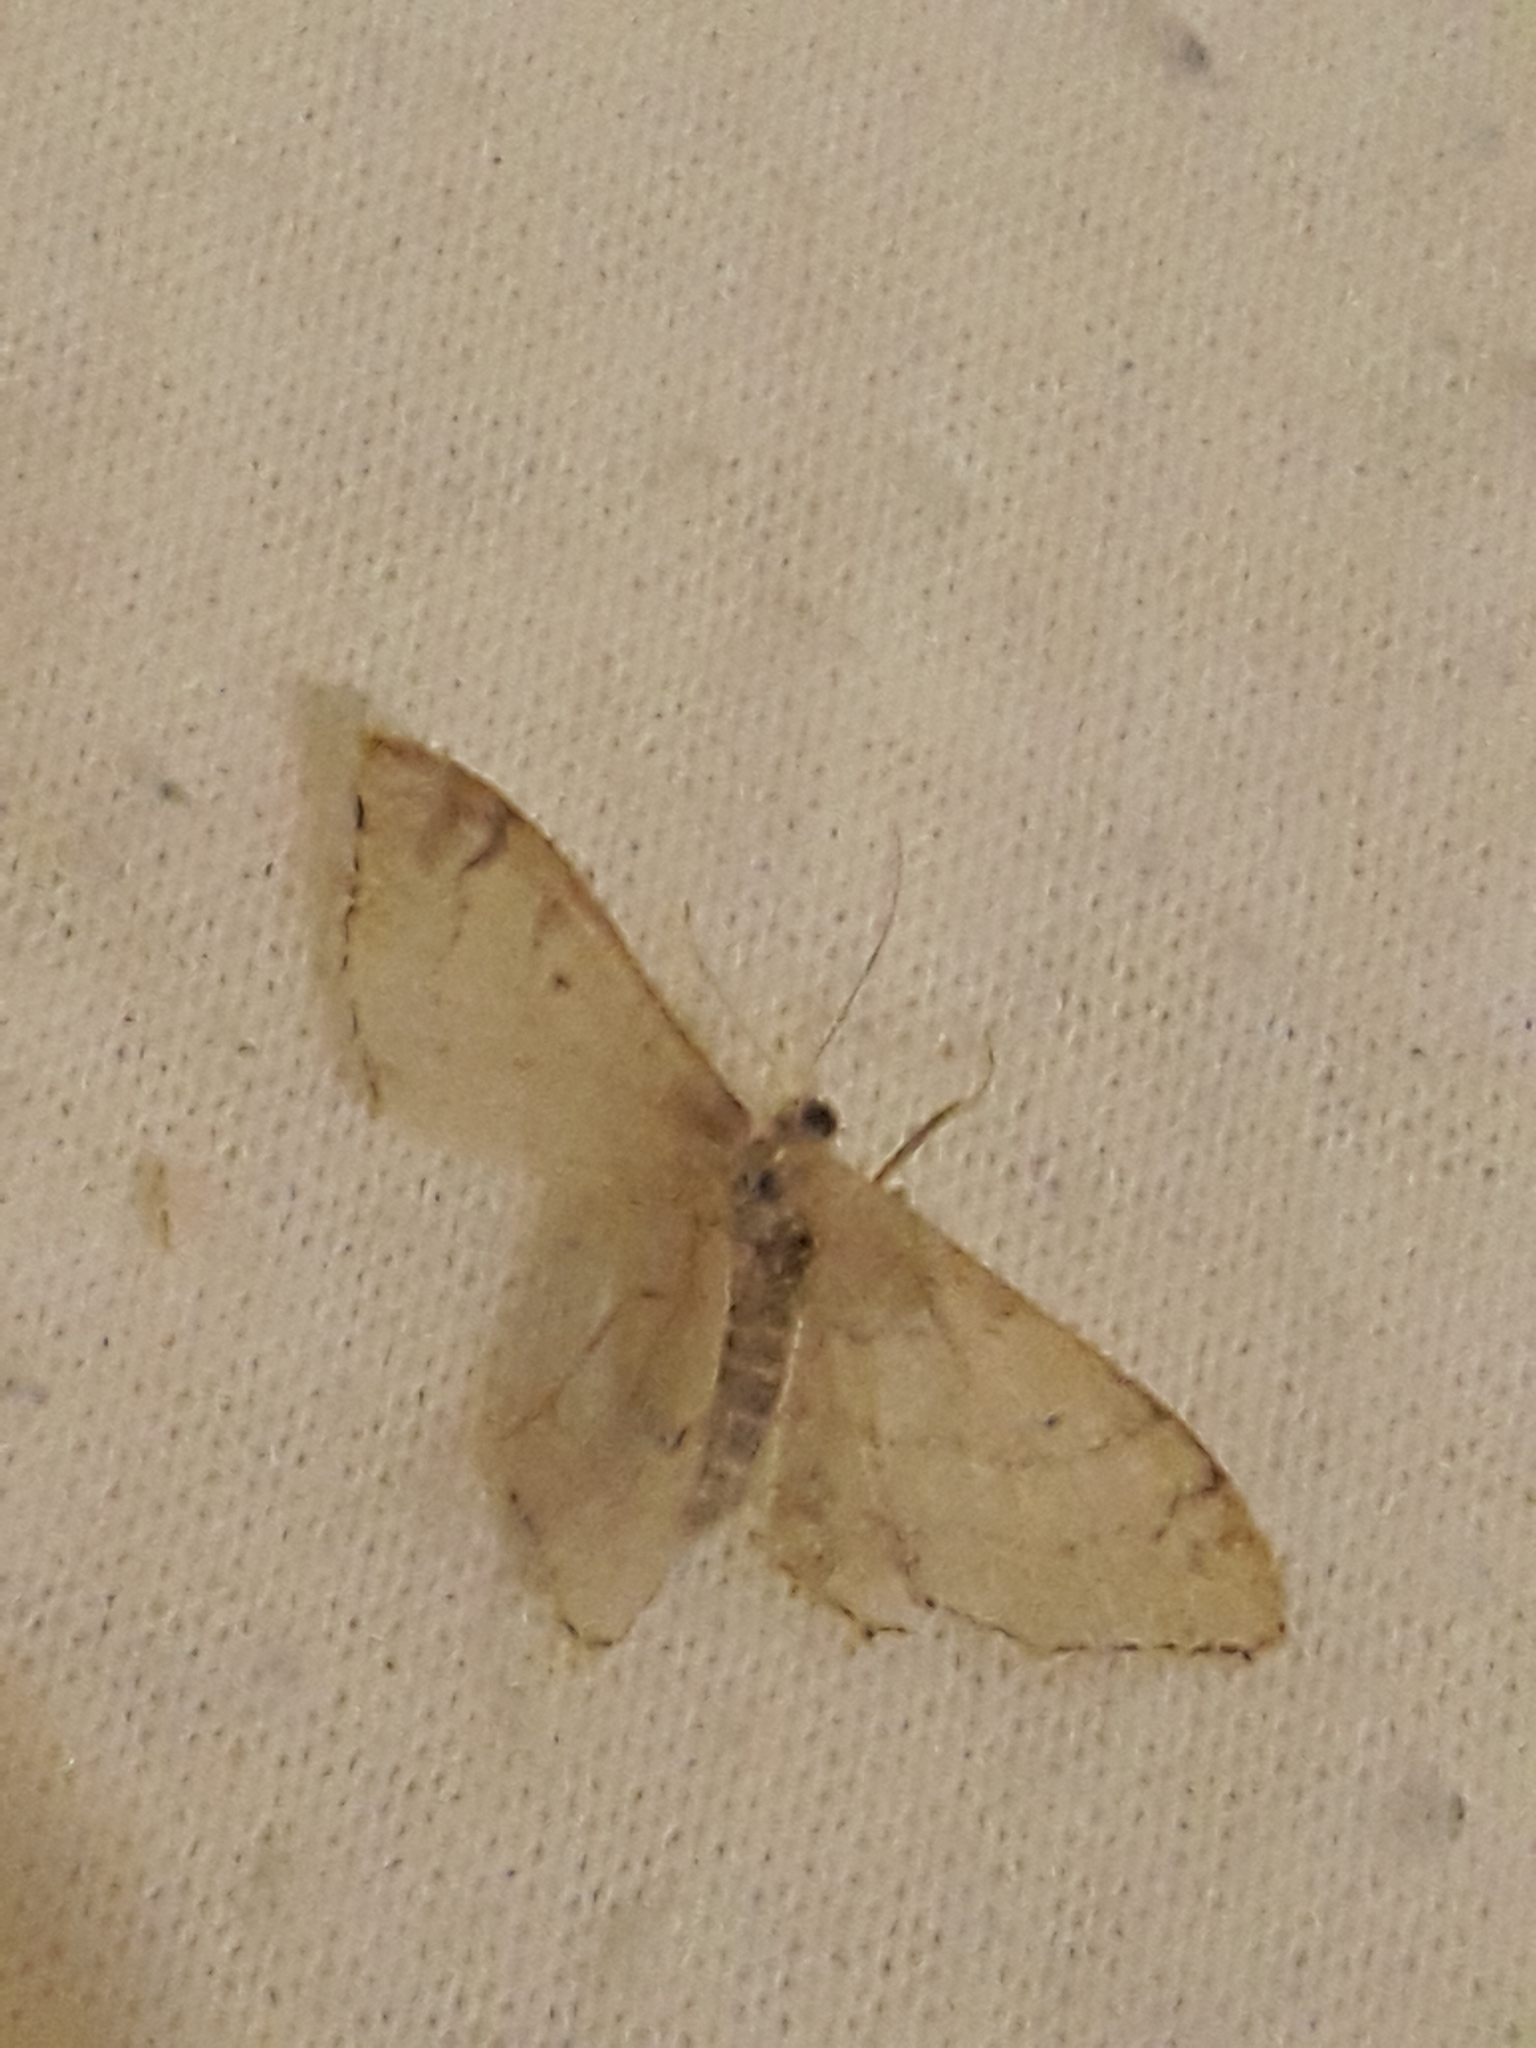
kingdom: Animalia
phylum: Arthropoda
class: Insecta
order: Lepidoptera
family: Geometridae
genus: Idaea
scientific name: Idaea aversata
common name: Riband wave
